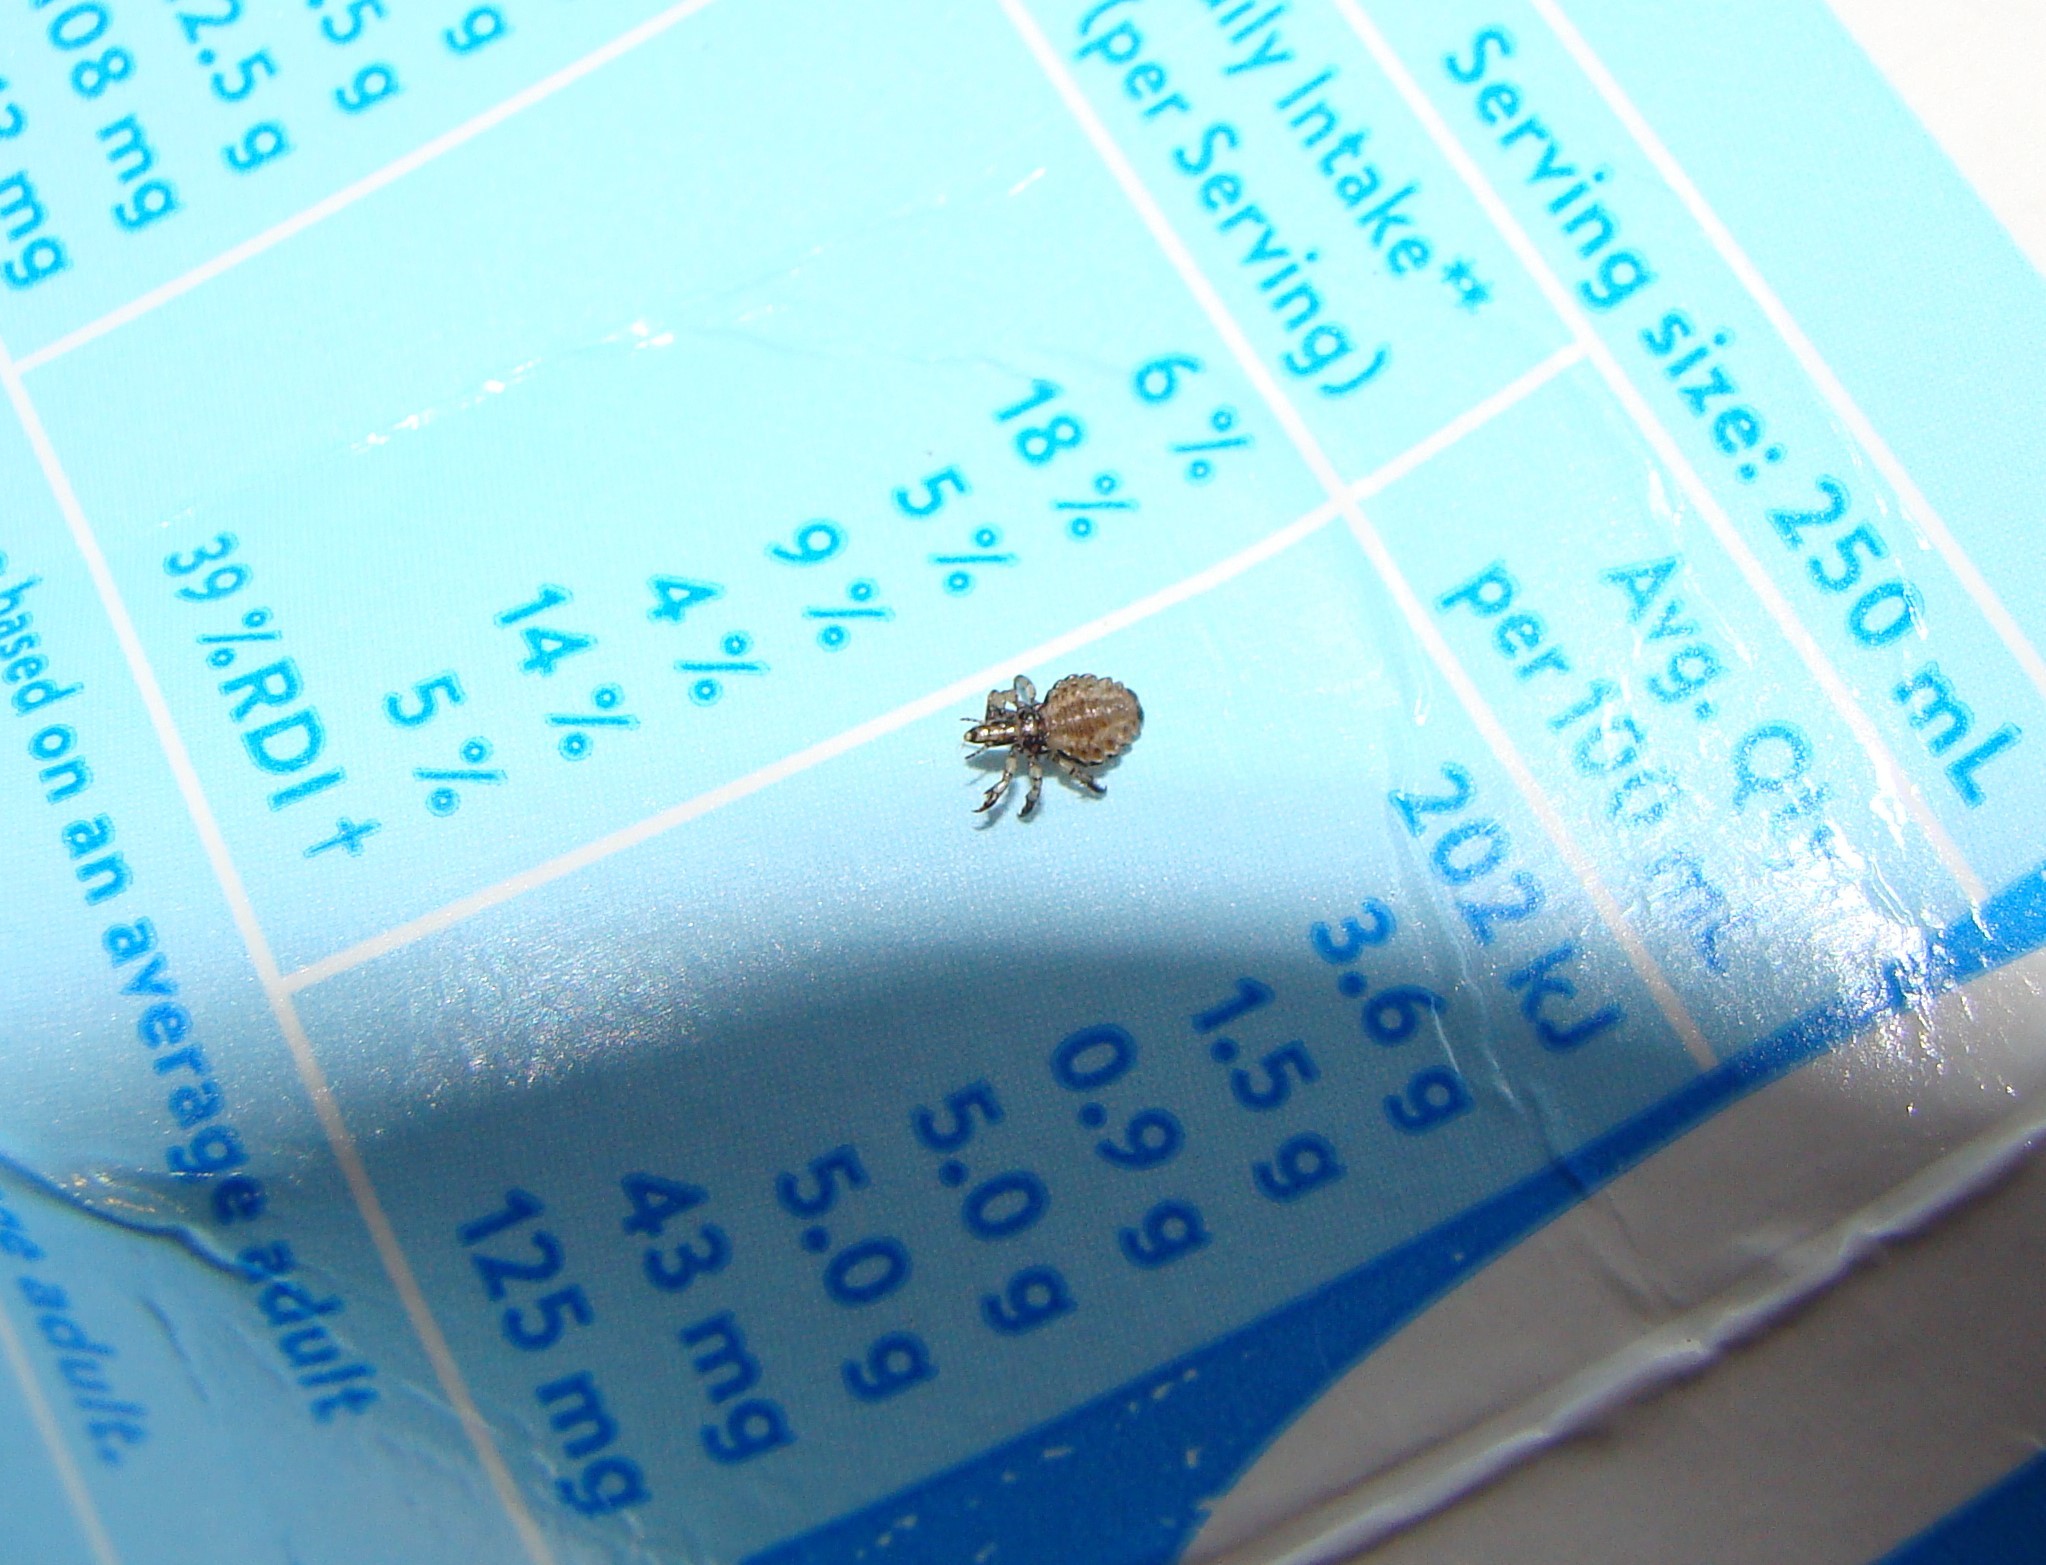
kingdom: Animalia
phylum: Arthropoda
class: Insecta
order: Psocodea
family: Haematopinidae
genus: Haematopinus
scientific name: Haematopinus suis
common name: Hog louse
